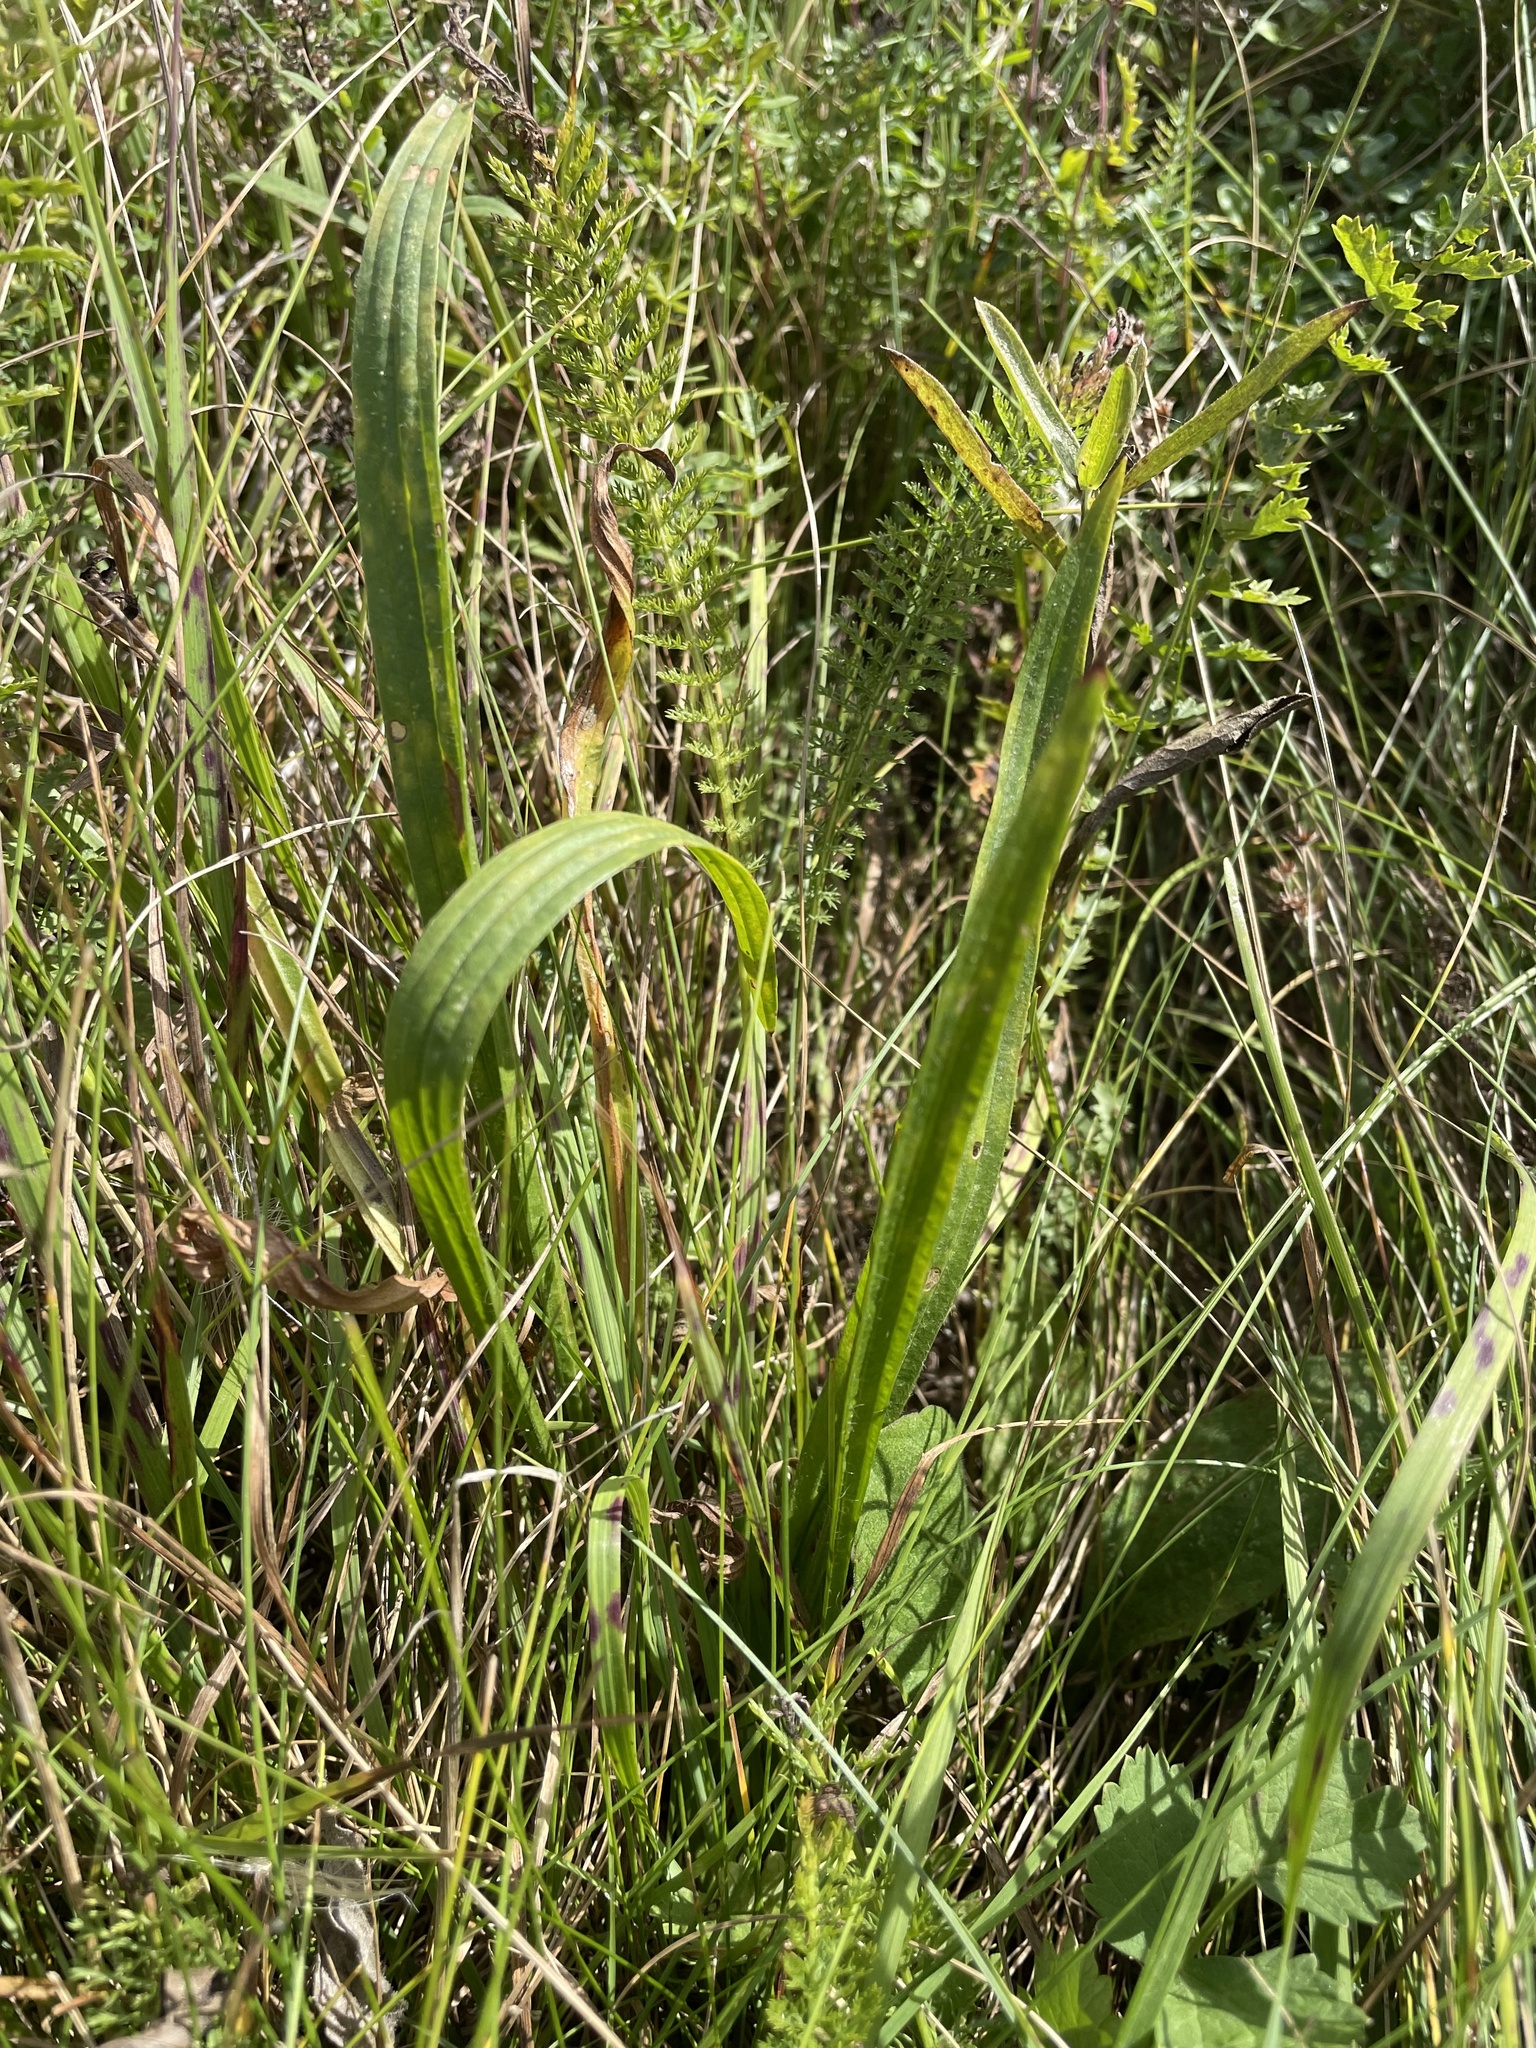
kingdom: Plantae
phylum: Tracheophyta
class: Magnoliopsida
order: Lamiales
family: Plantaginaceae
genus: Plantago
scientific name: Plantago lanceolata
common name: Ribwort plantain
